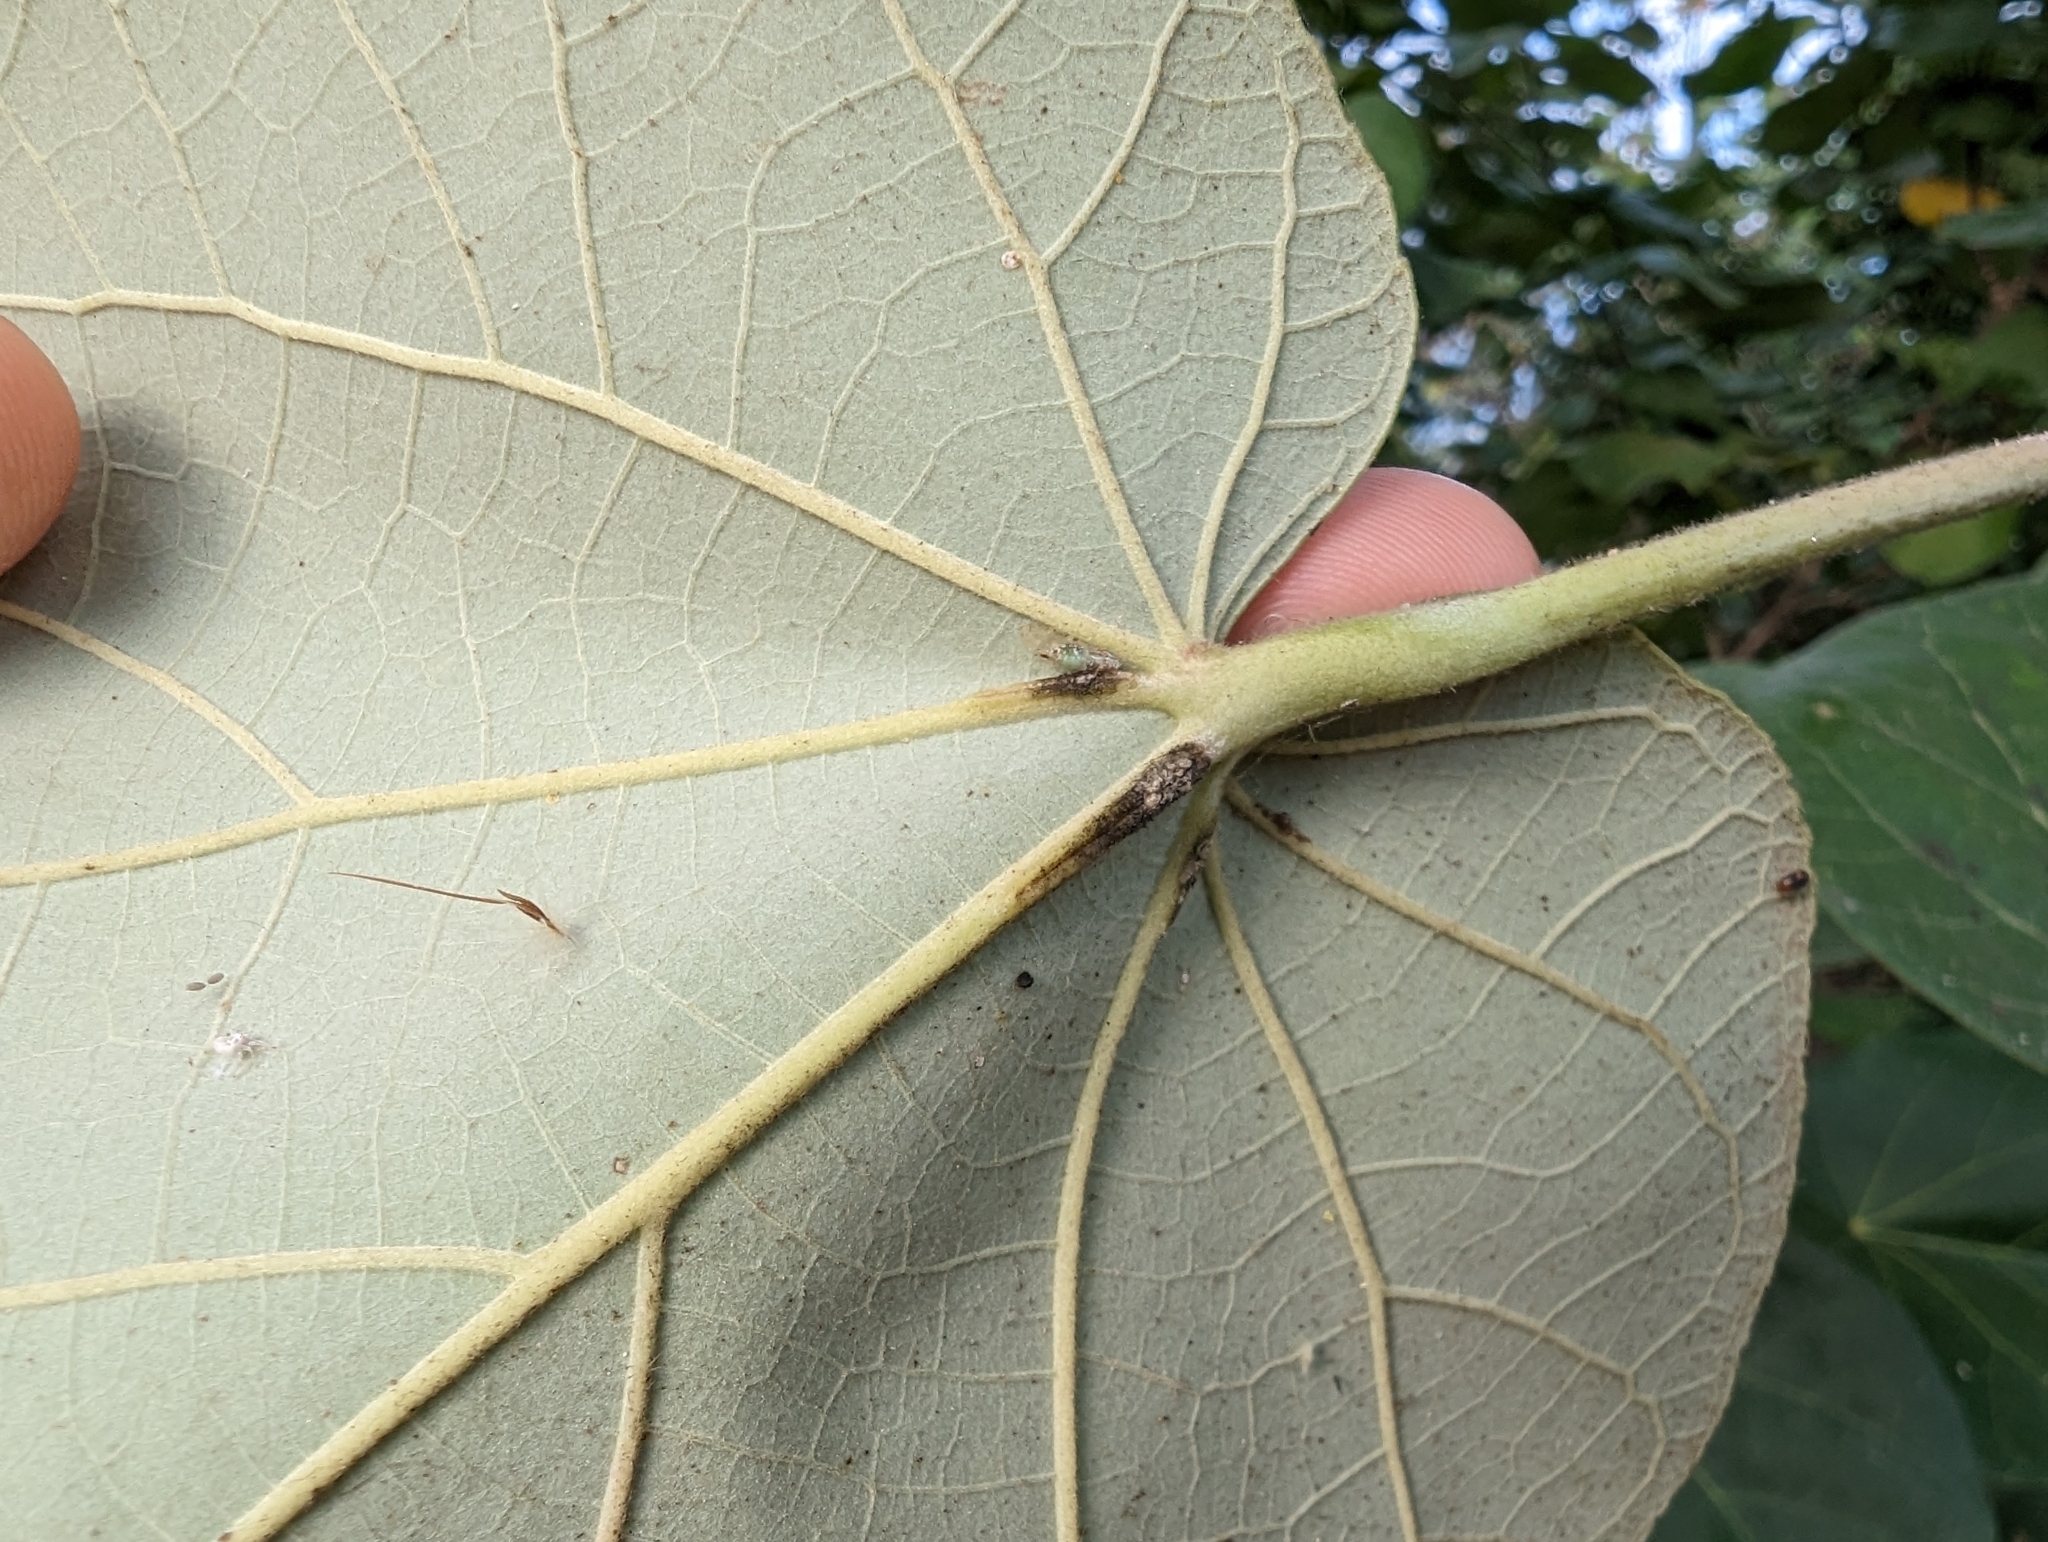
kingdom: Plantae
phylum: Tracheophyta
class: Magnoliopsida
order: Malvales
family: Malvaceae
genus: Talipariti
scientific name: Talipariti tiliaceum
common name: Sea hibiscus
